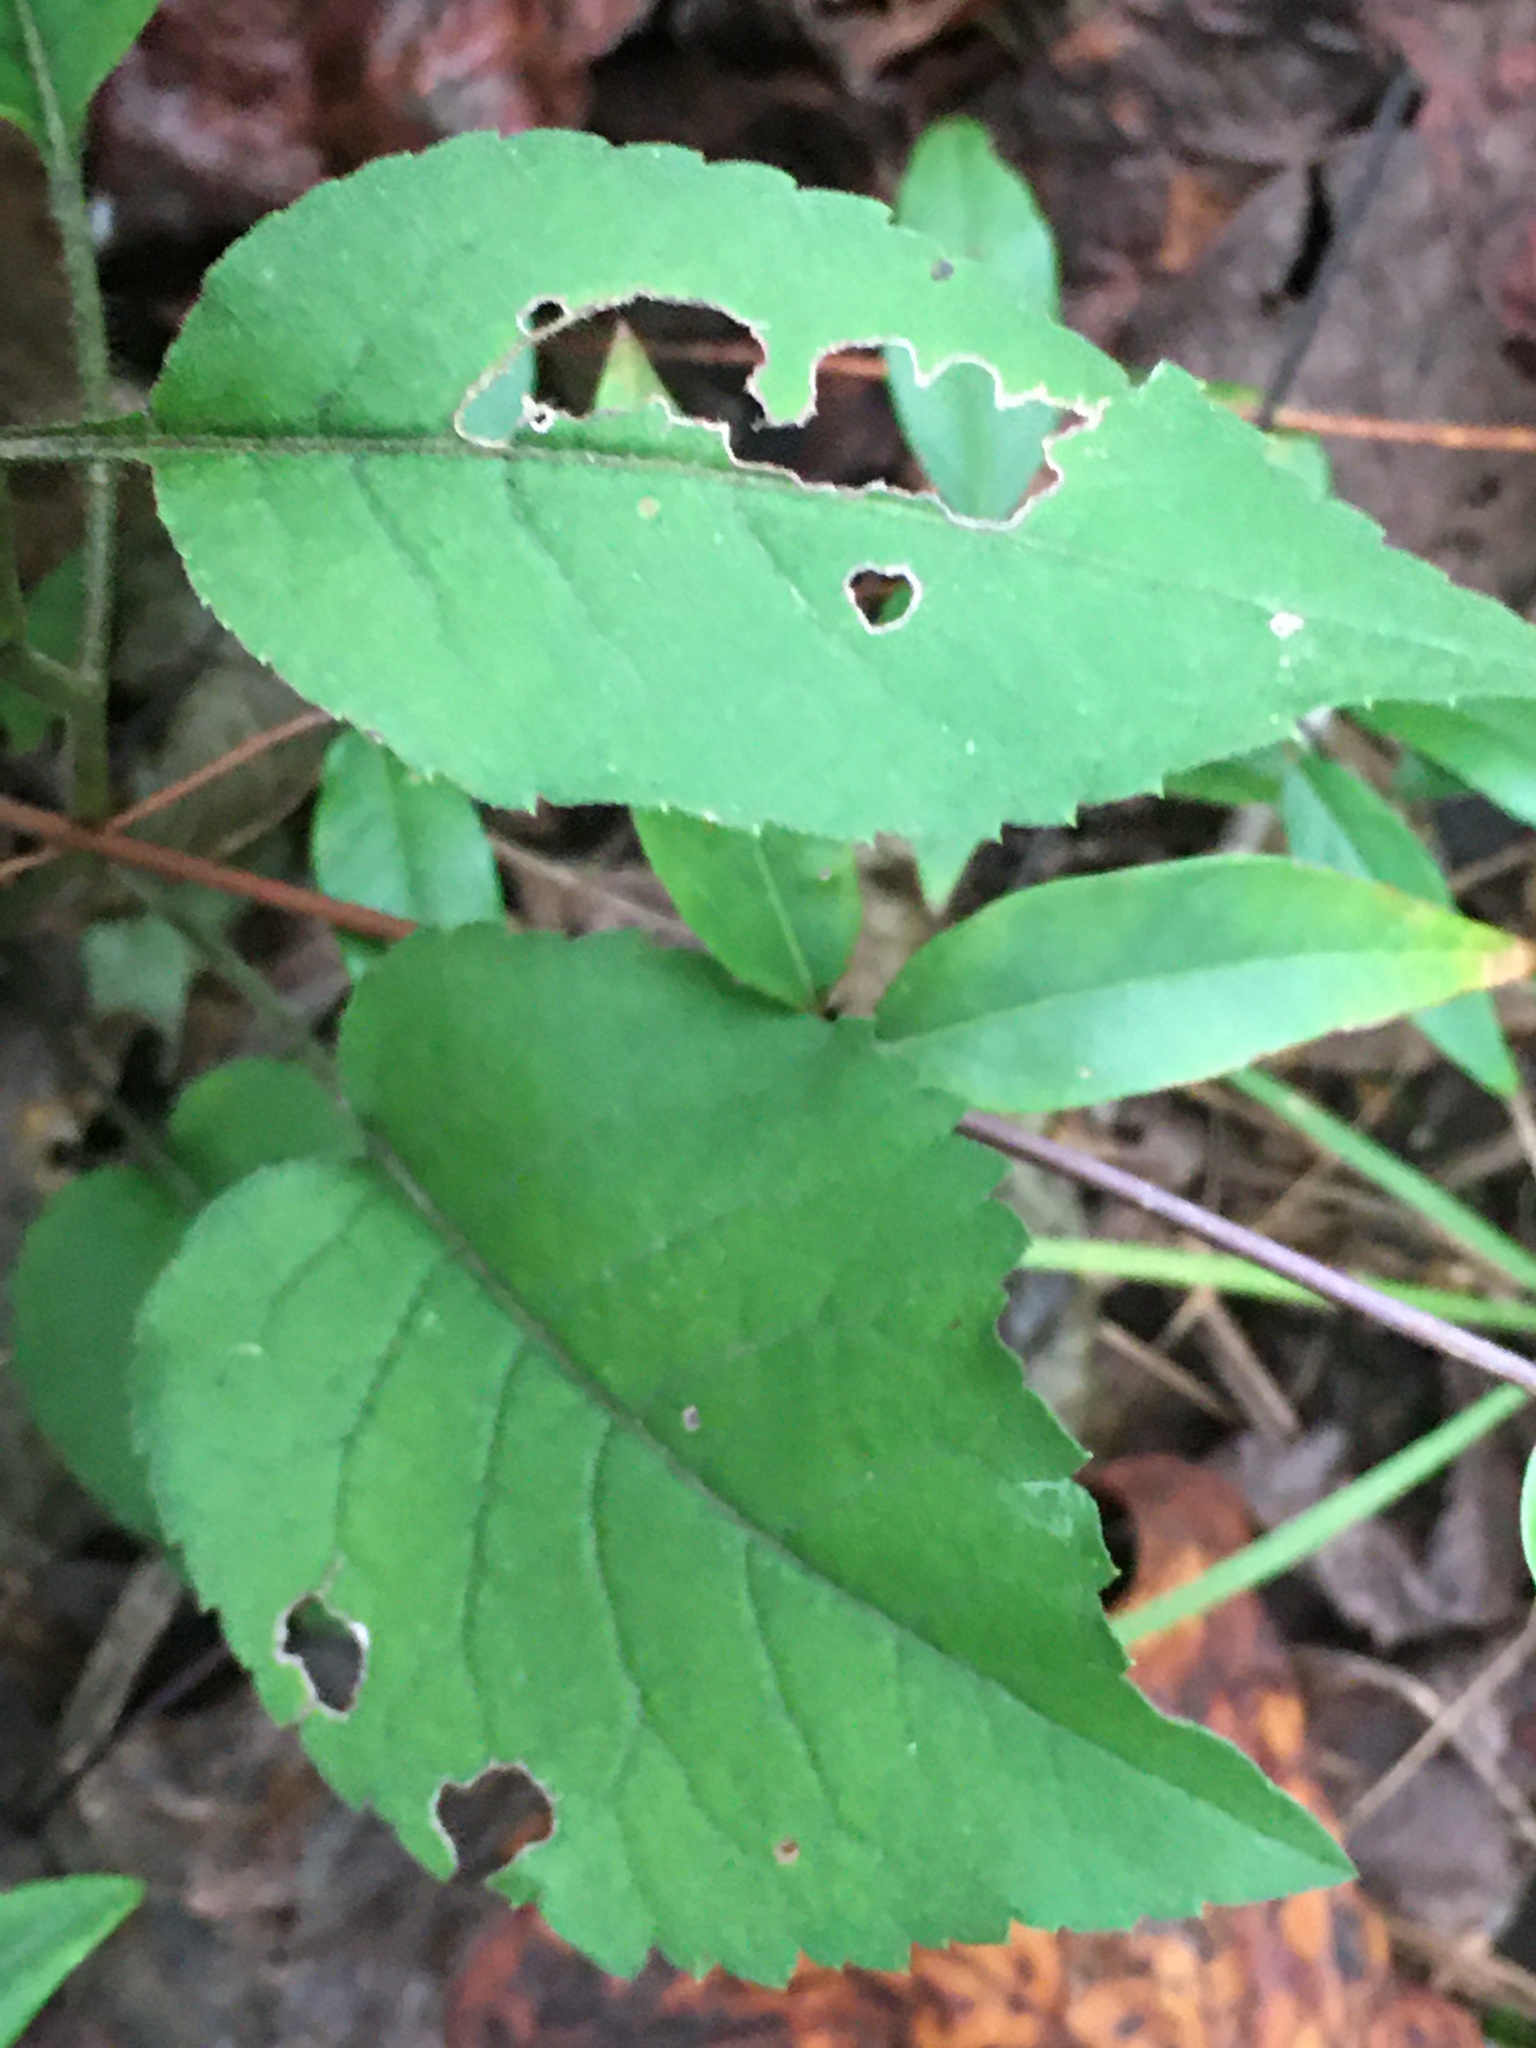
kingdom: Plantae
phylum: Tracheophyta
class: Magnoliopsida
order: Asterales
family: Asteraceae
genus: Eurybia
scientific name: Eurybia mirabilis
